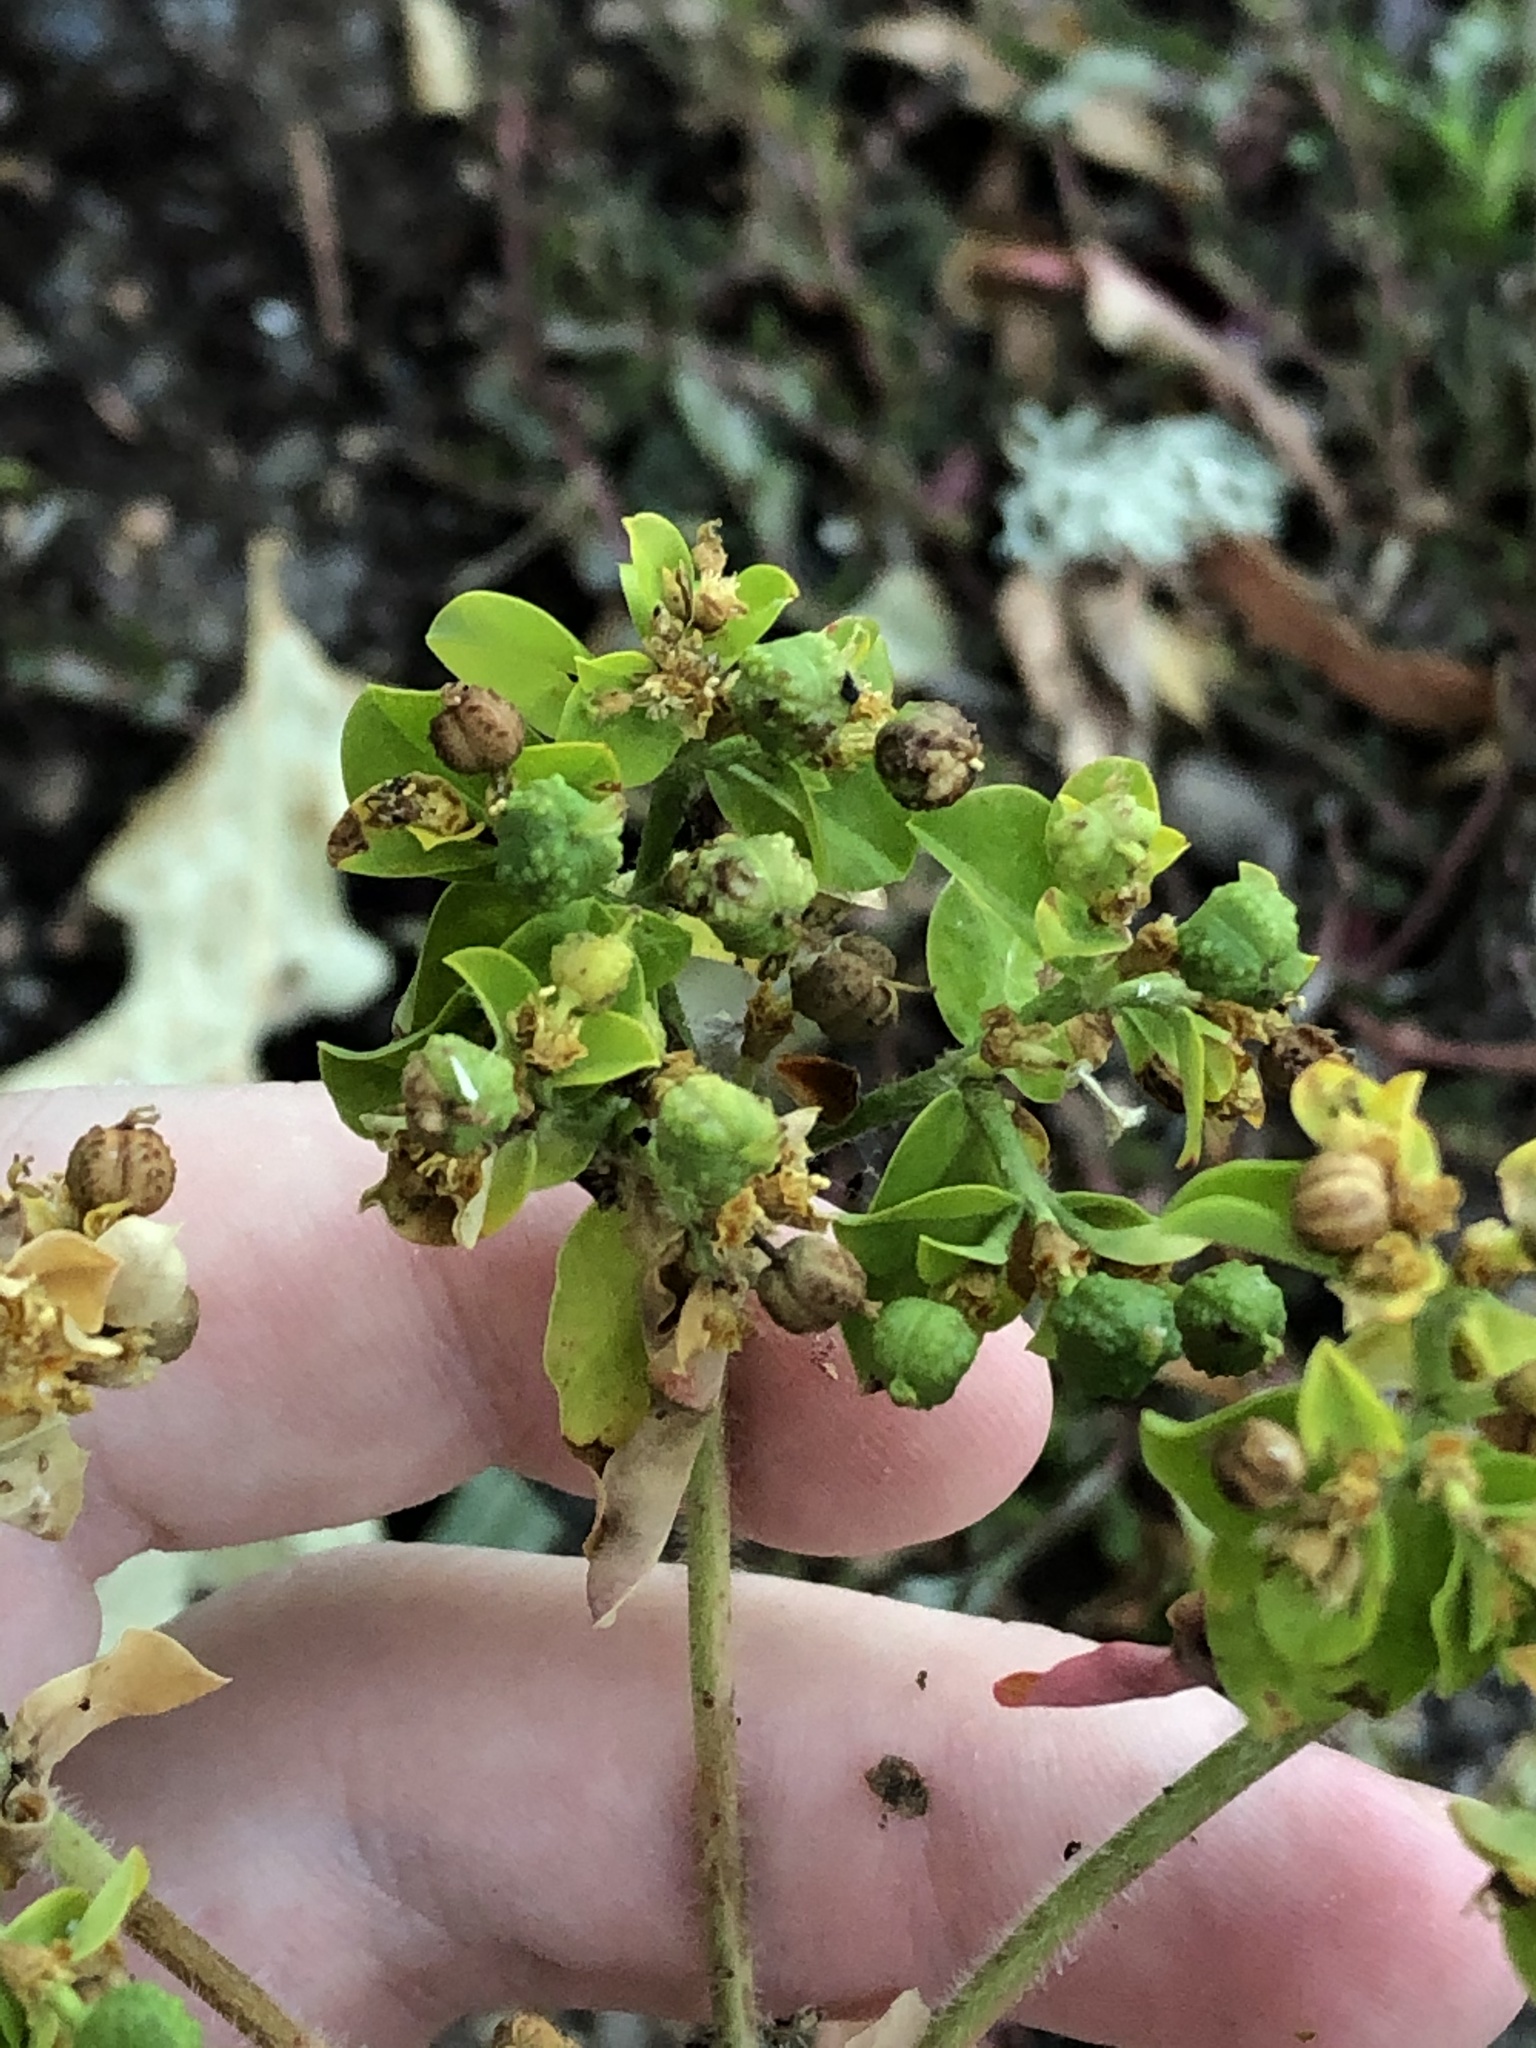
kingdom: Plantae
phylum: Tracheophyta
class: Magnoliopsida
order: Malpighiales
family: Euphorbiaceae
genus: Euphorbia
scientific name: Euphorbia oblongata
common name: Balkan spurge
